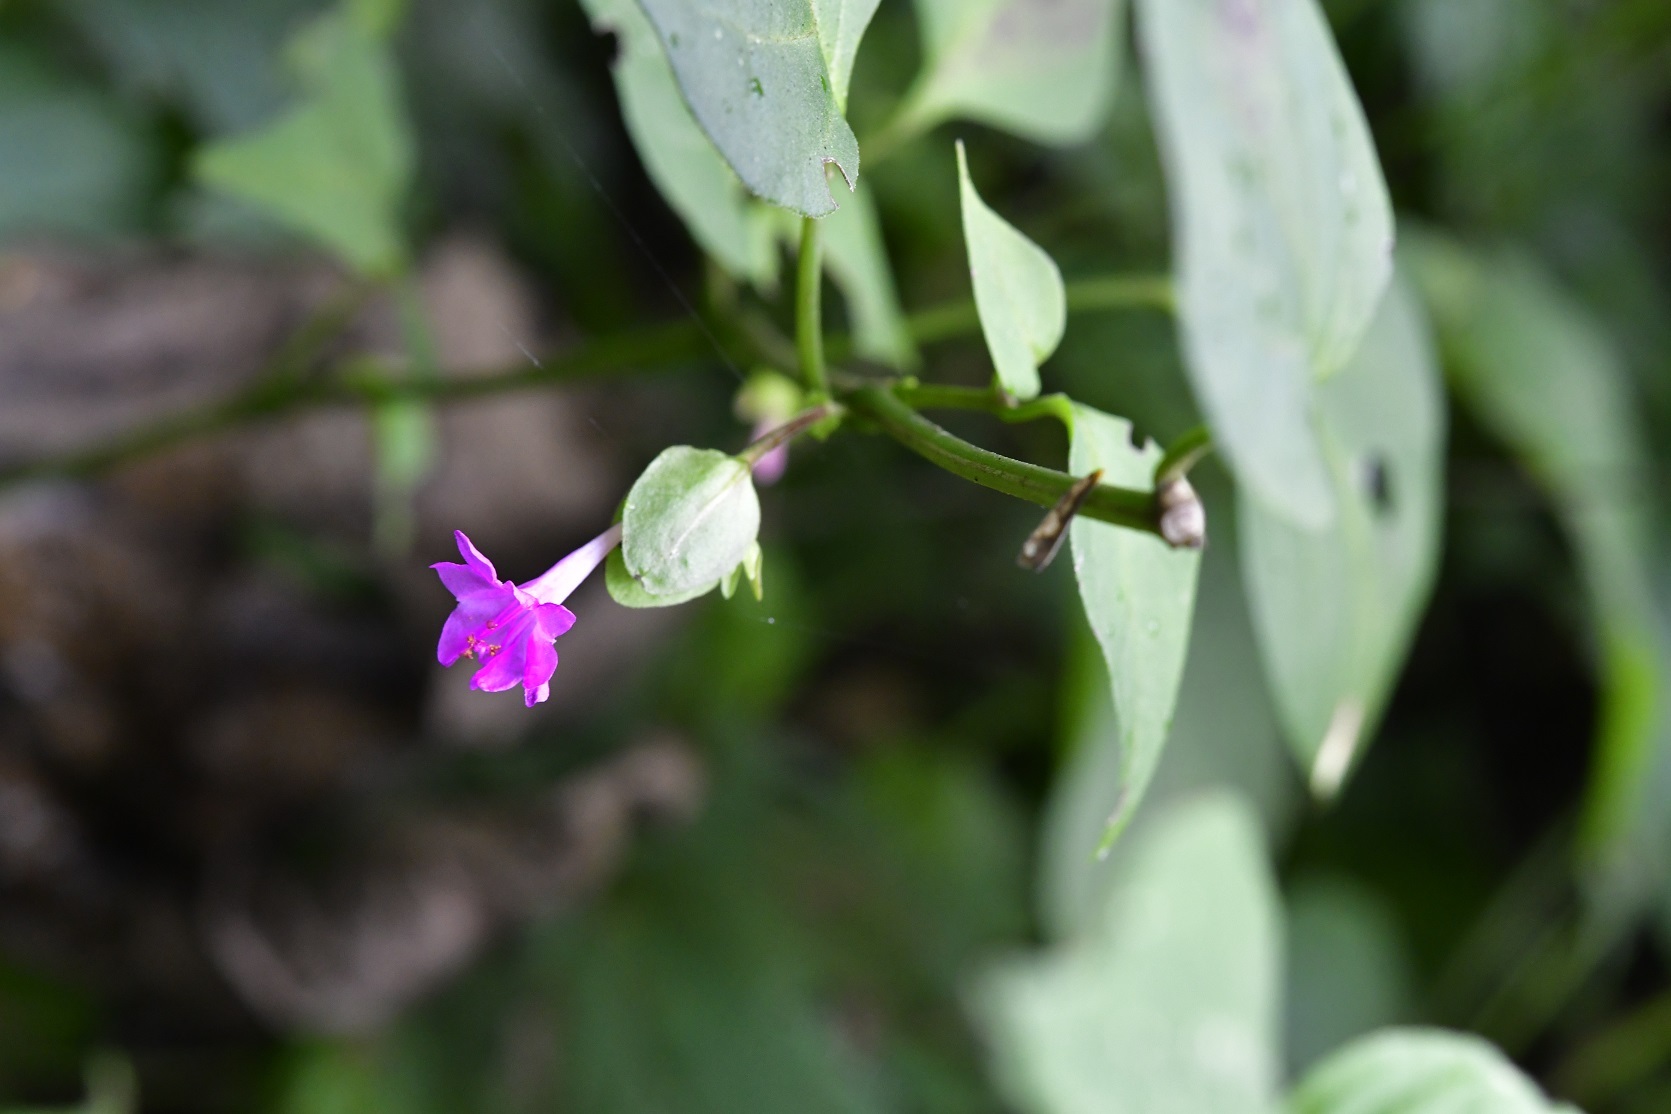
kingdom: Plantae
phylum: Tracheophyta
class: Magnoliopsida
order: Caryophyllales
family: Nyctaginaceae
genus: Mirabilis
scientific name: Mirabilis sanguinea
